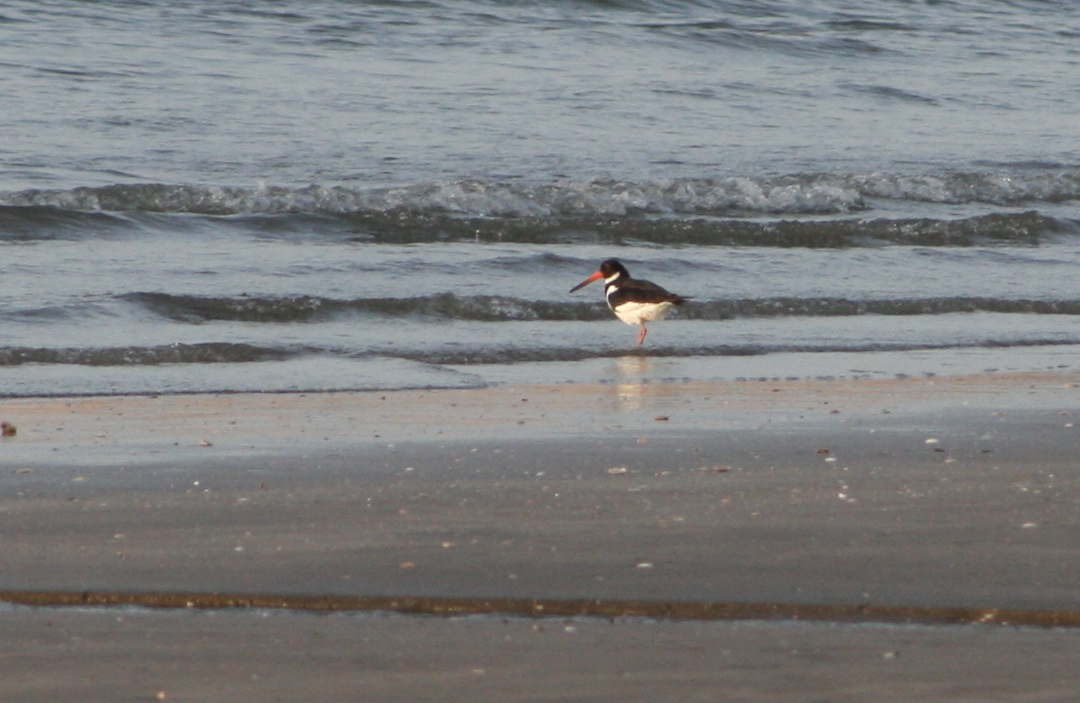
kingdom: Animalia
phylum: Chordata
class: Aves
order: Charadriiformes
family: Haematopodidae
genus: Haematopus
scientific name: Haematopus ostralegus
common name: Eurasian oystercatcher
